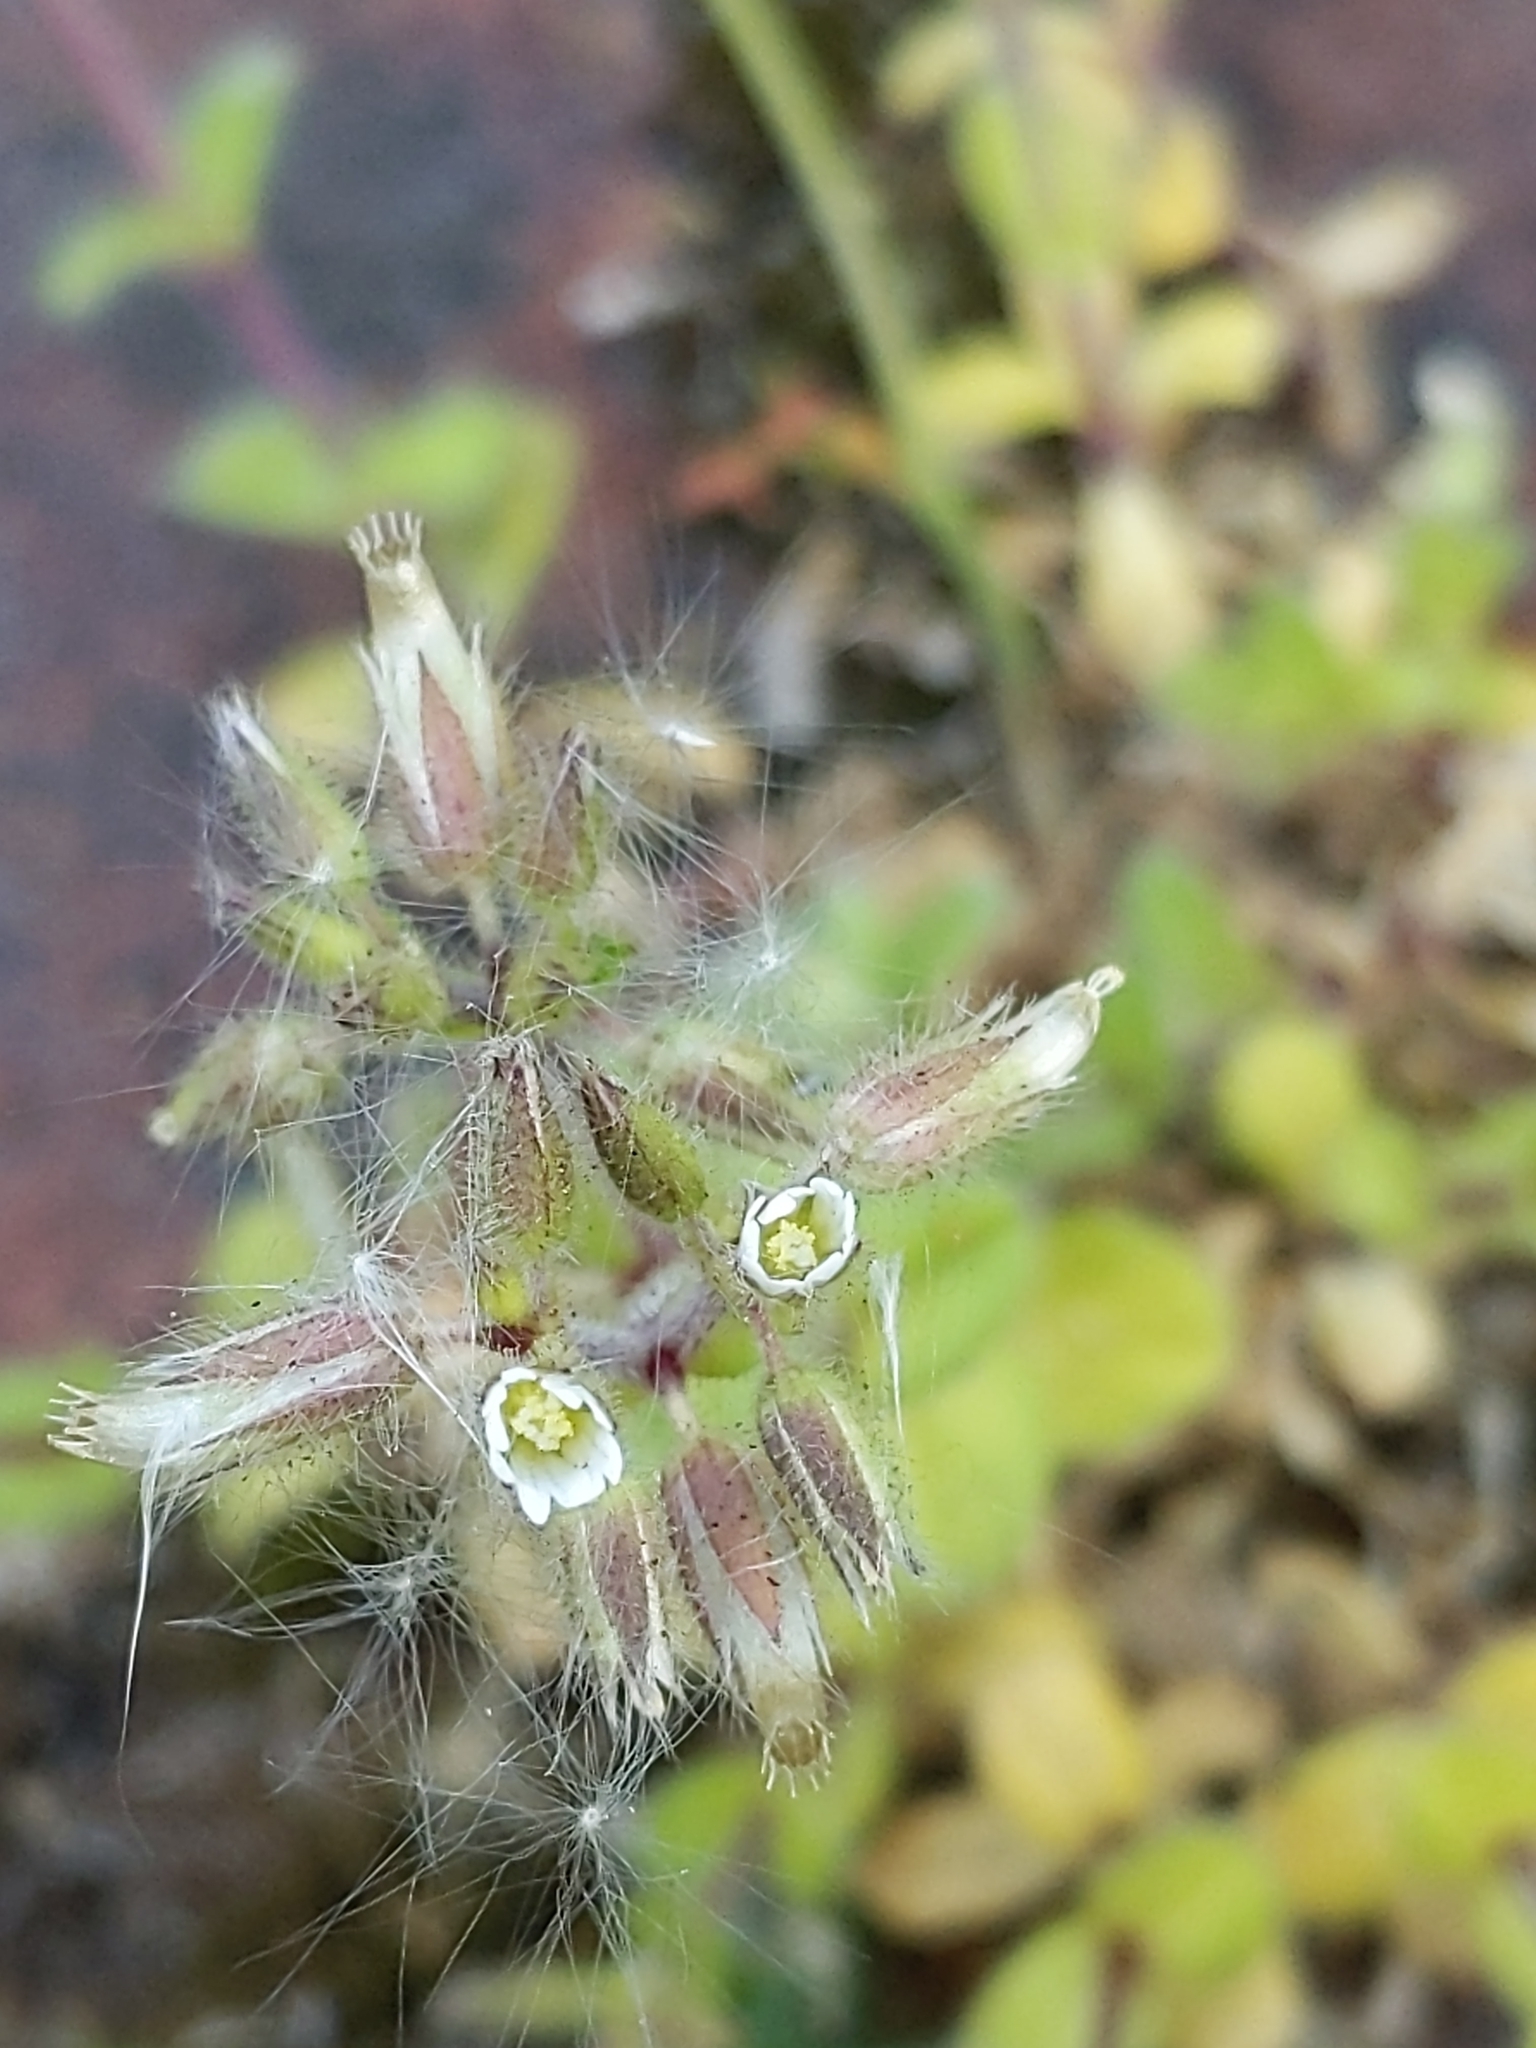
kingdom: Plantae
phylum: Tracheophyta
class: Magnoliopsida
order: Caryophyllales
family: Caryophyllaceae
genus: Cerastium
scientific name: Cerastium glomeratum
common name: Sticky chickweed
